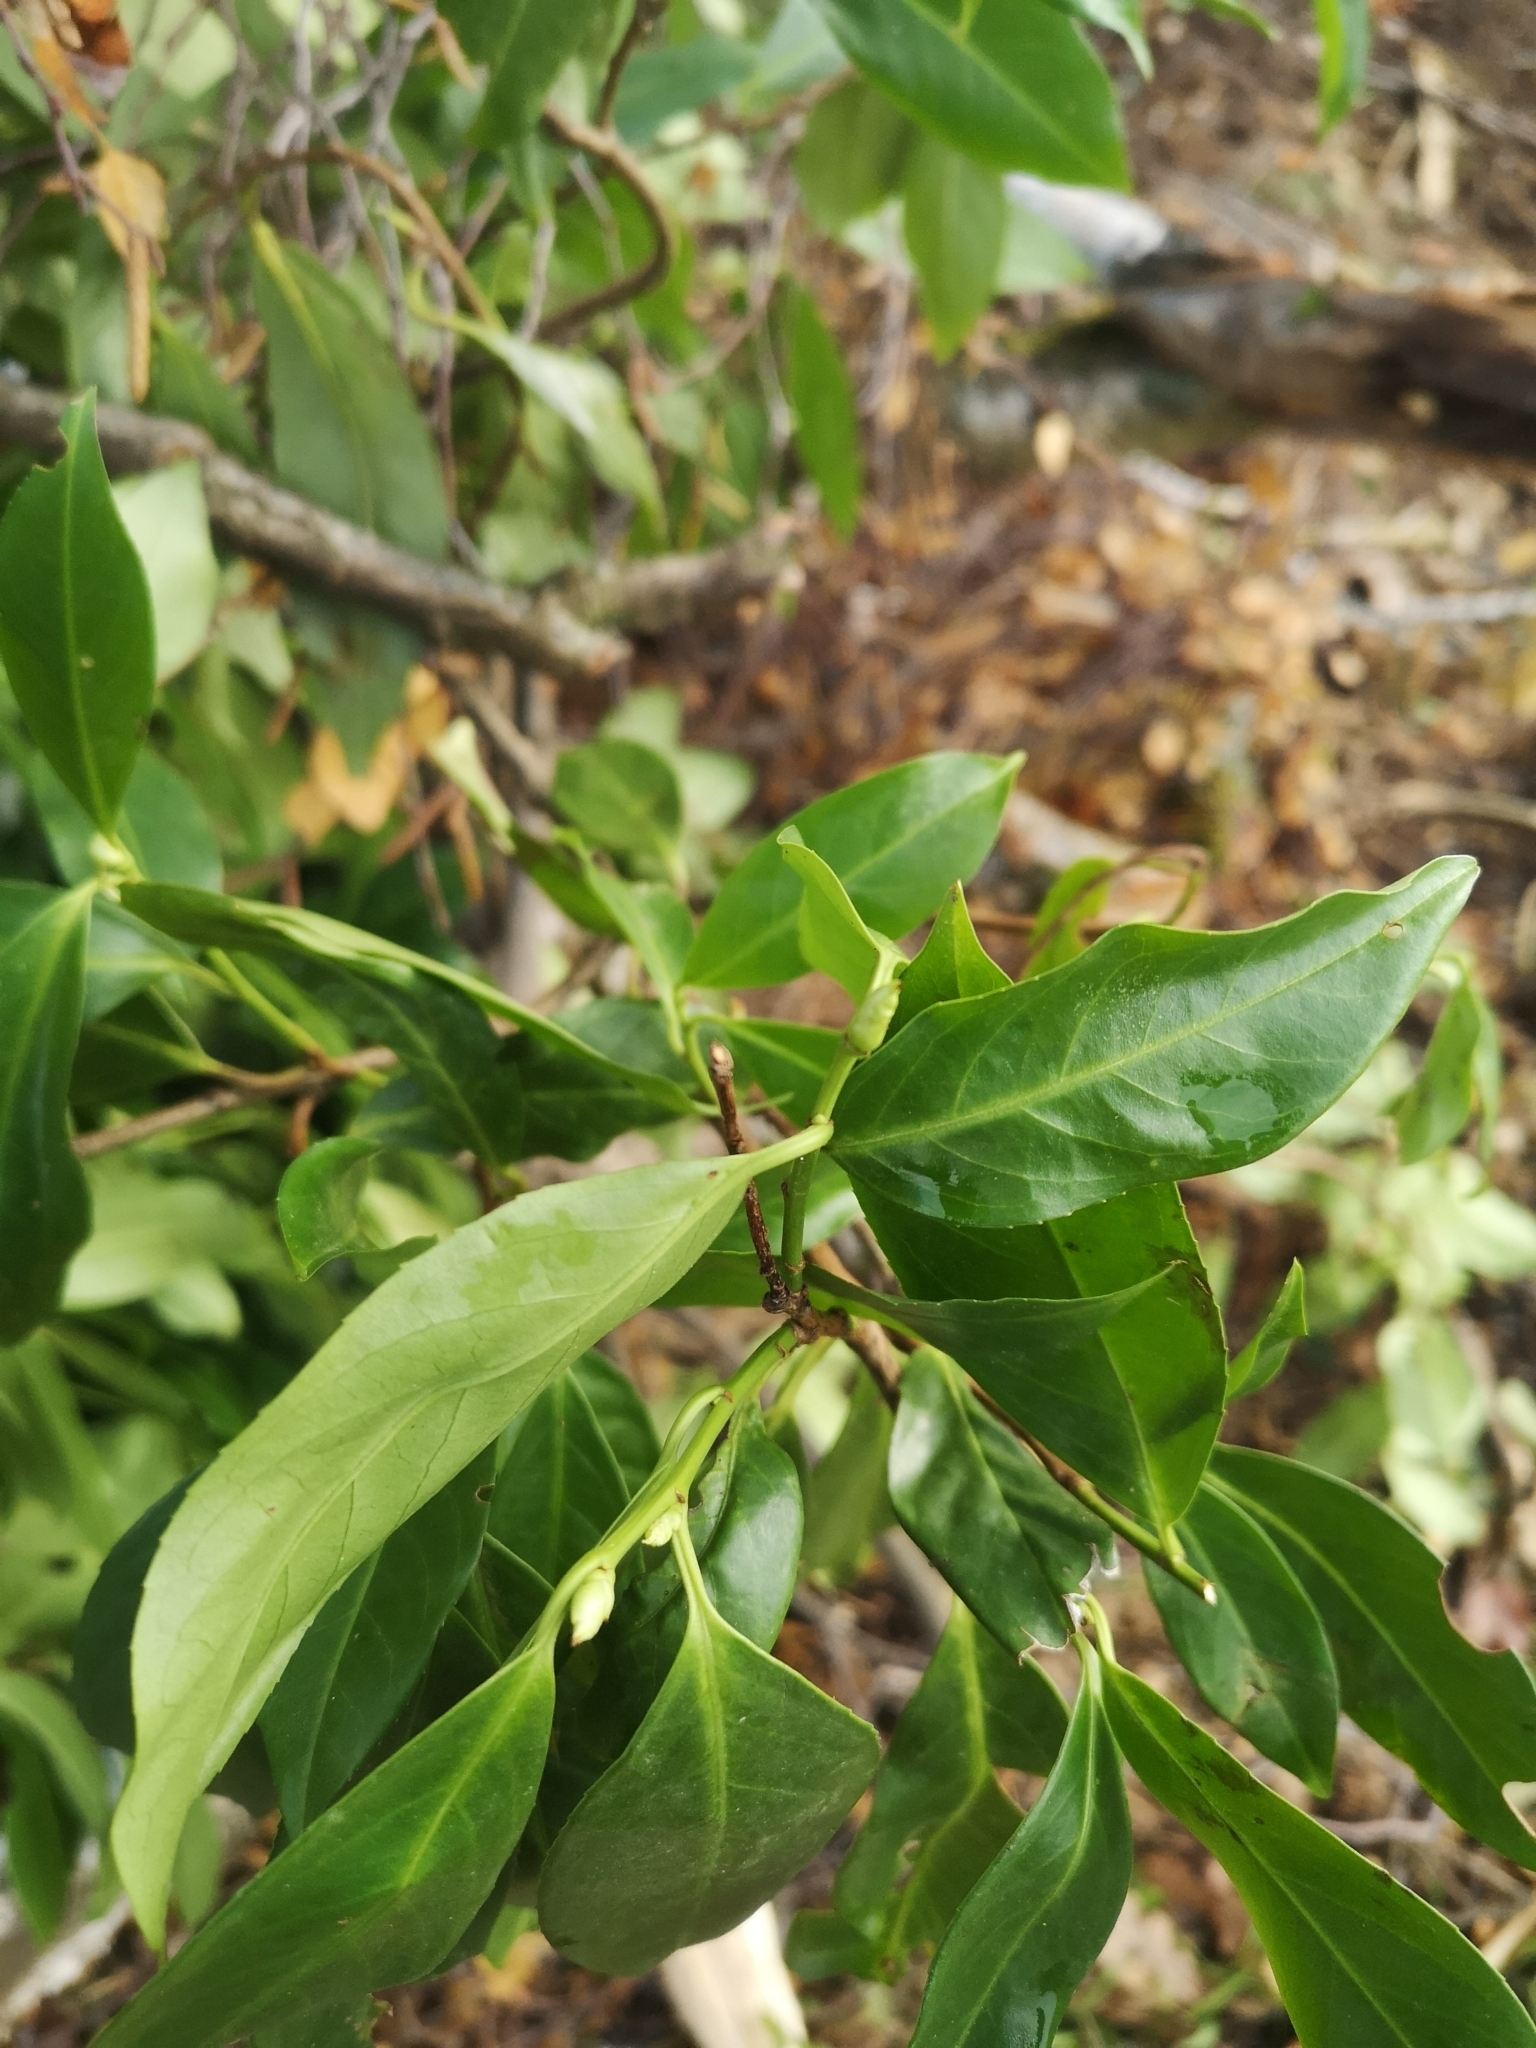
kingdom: Plantae
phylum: Tracheophyta
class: Magnoliopsida
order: Rosales
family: Rosaceae
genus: Prunus
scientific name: Prunus serotina
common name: Black cherry
